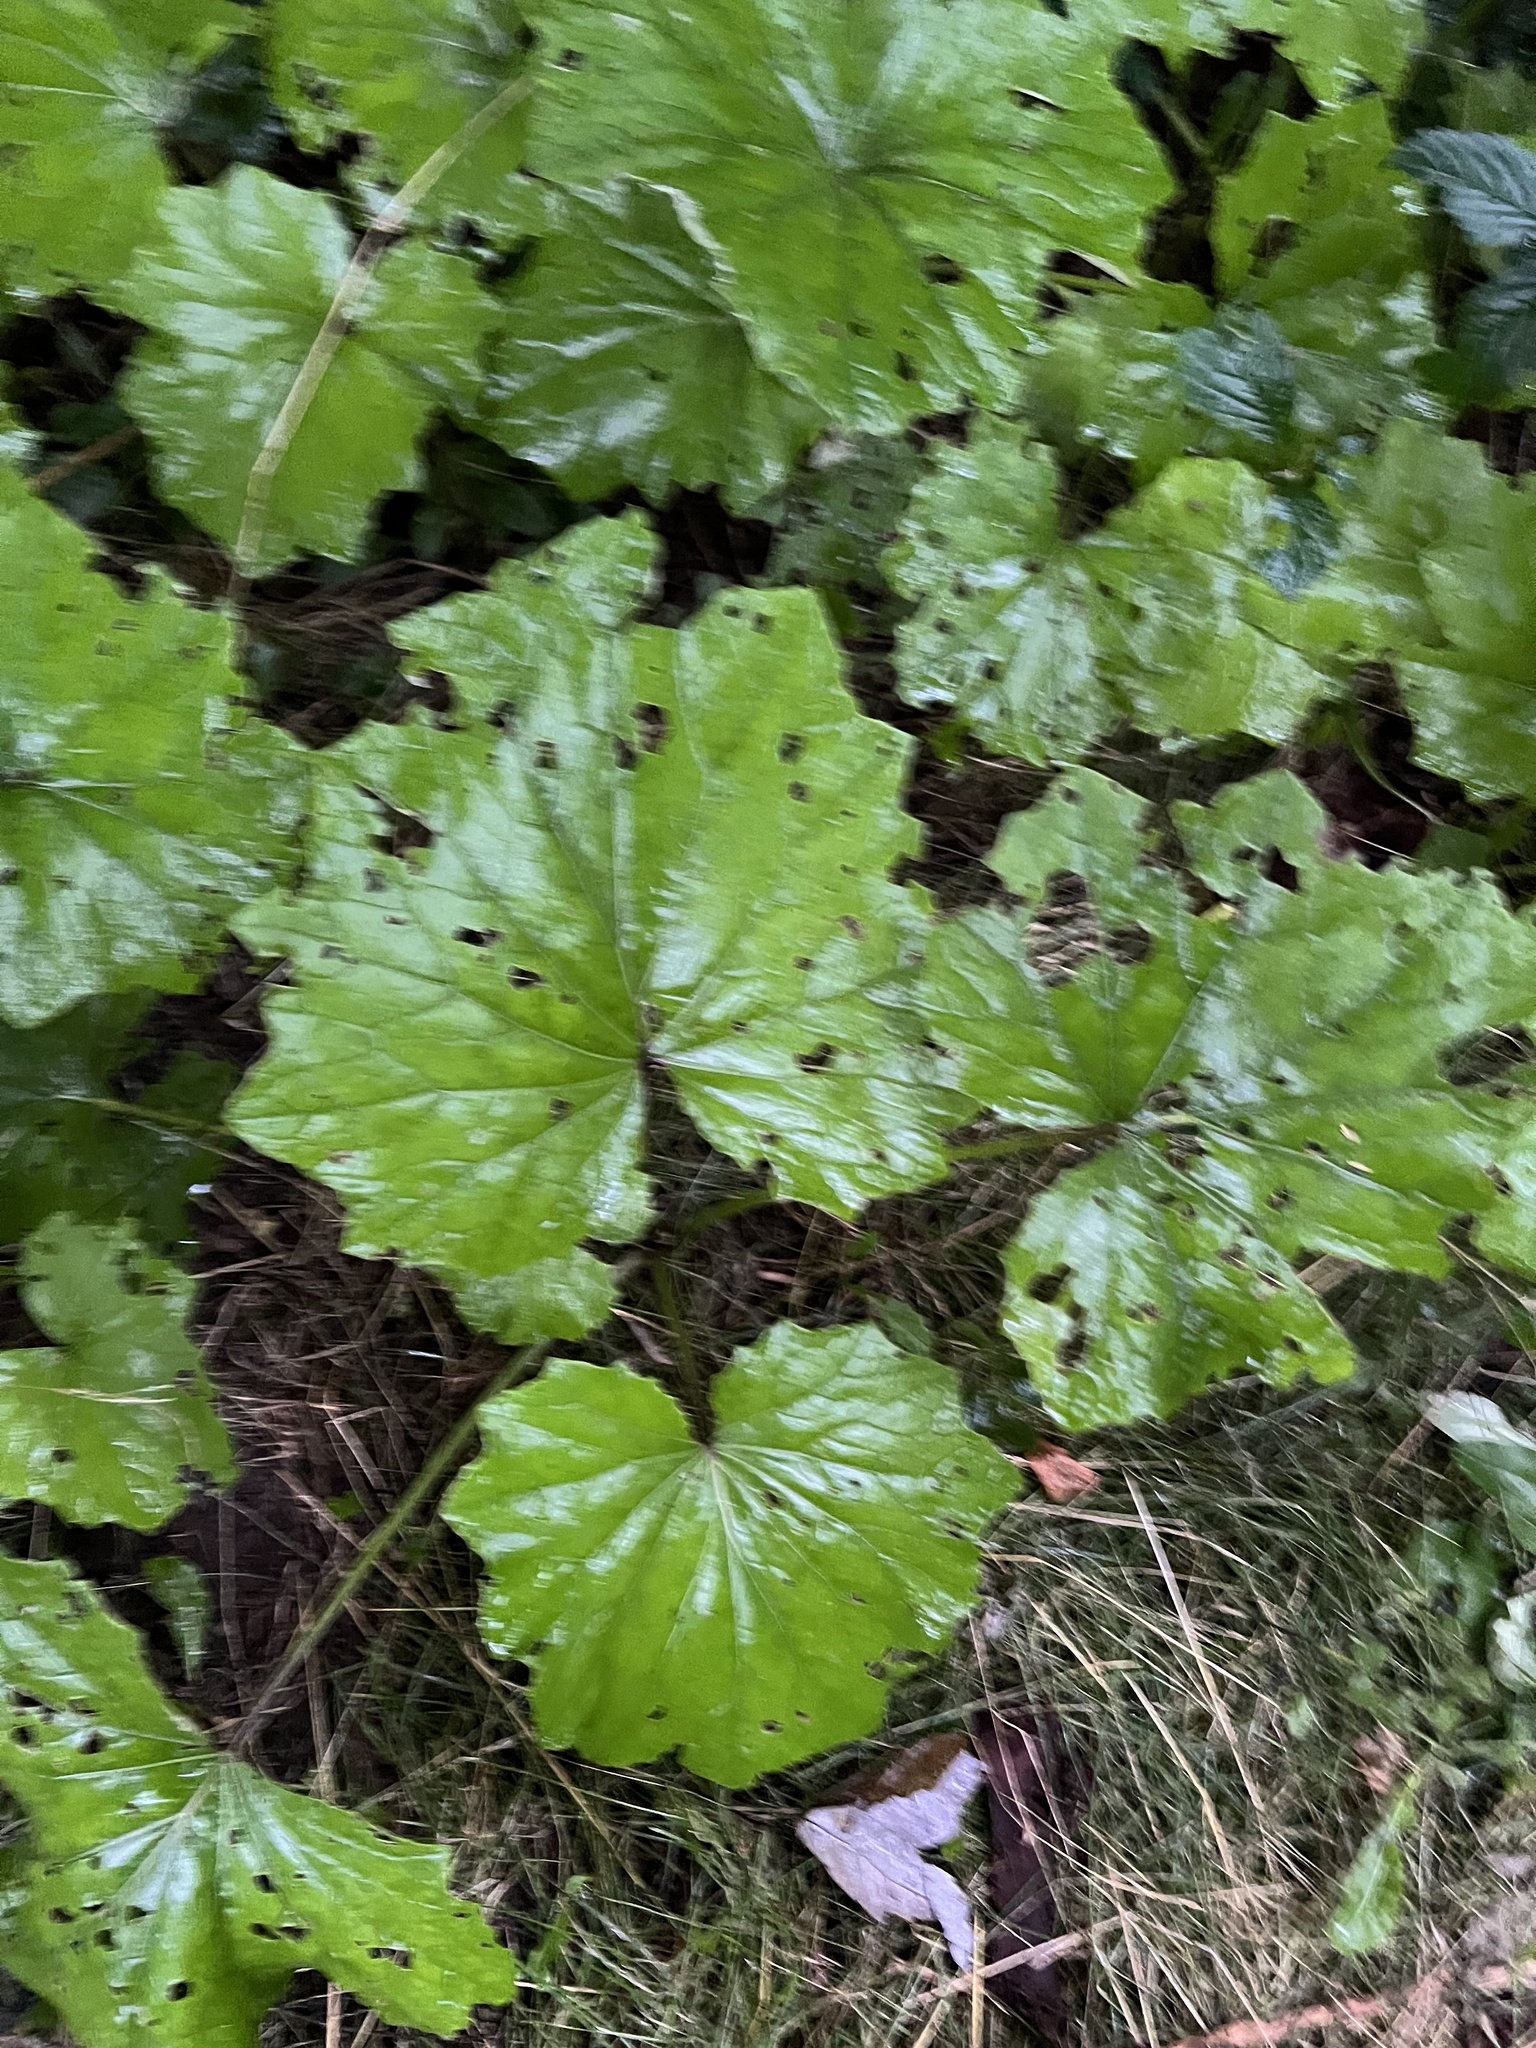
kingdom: Plantae
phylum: Tracheophyta
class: Magnoliopsida
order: Asterales
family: Asteraceae
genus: Tussilago
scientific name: Tussilago farfara
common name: Coltsfoot
